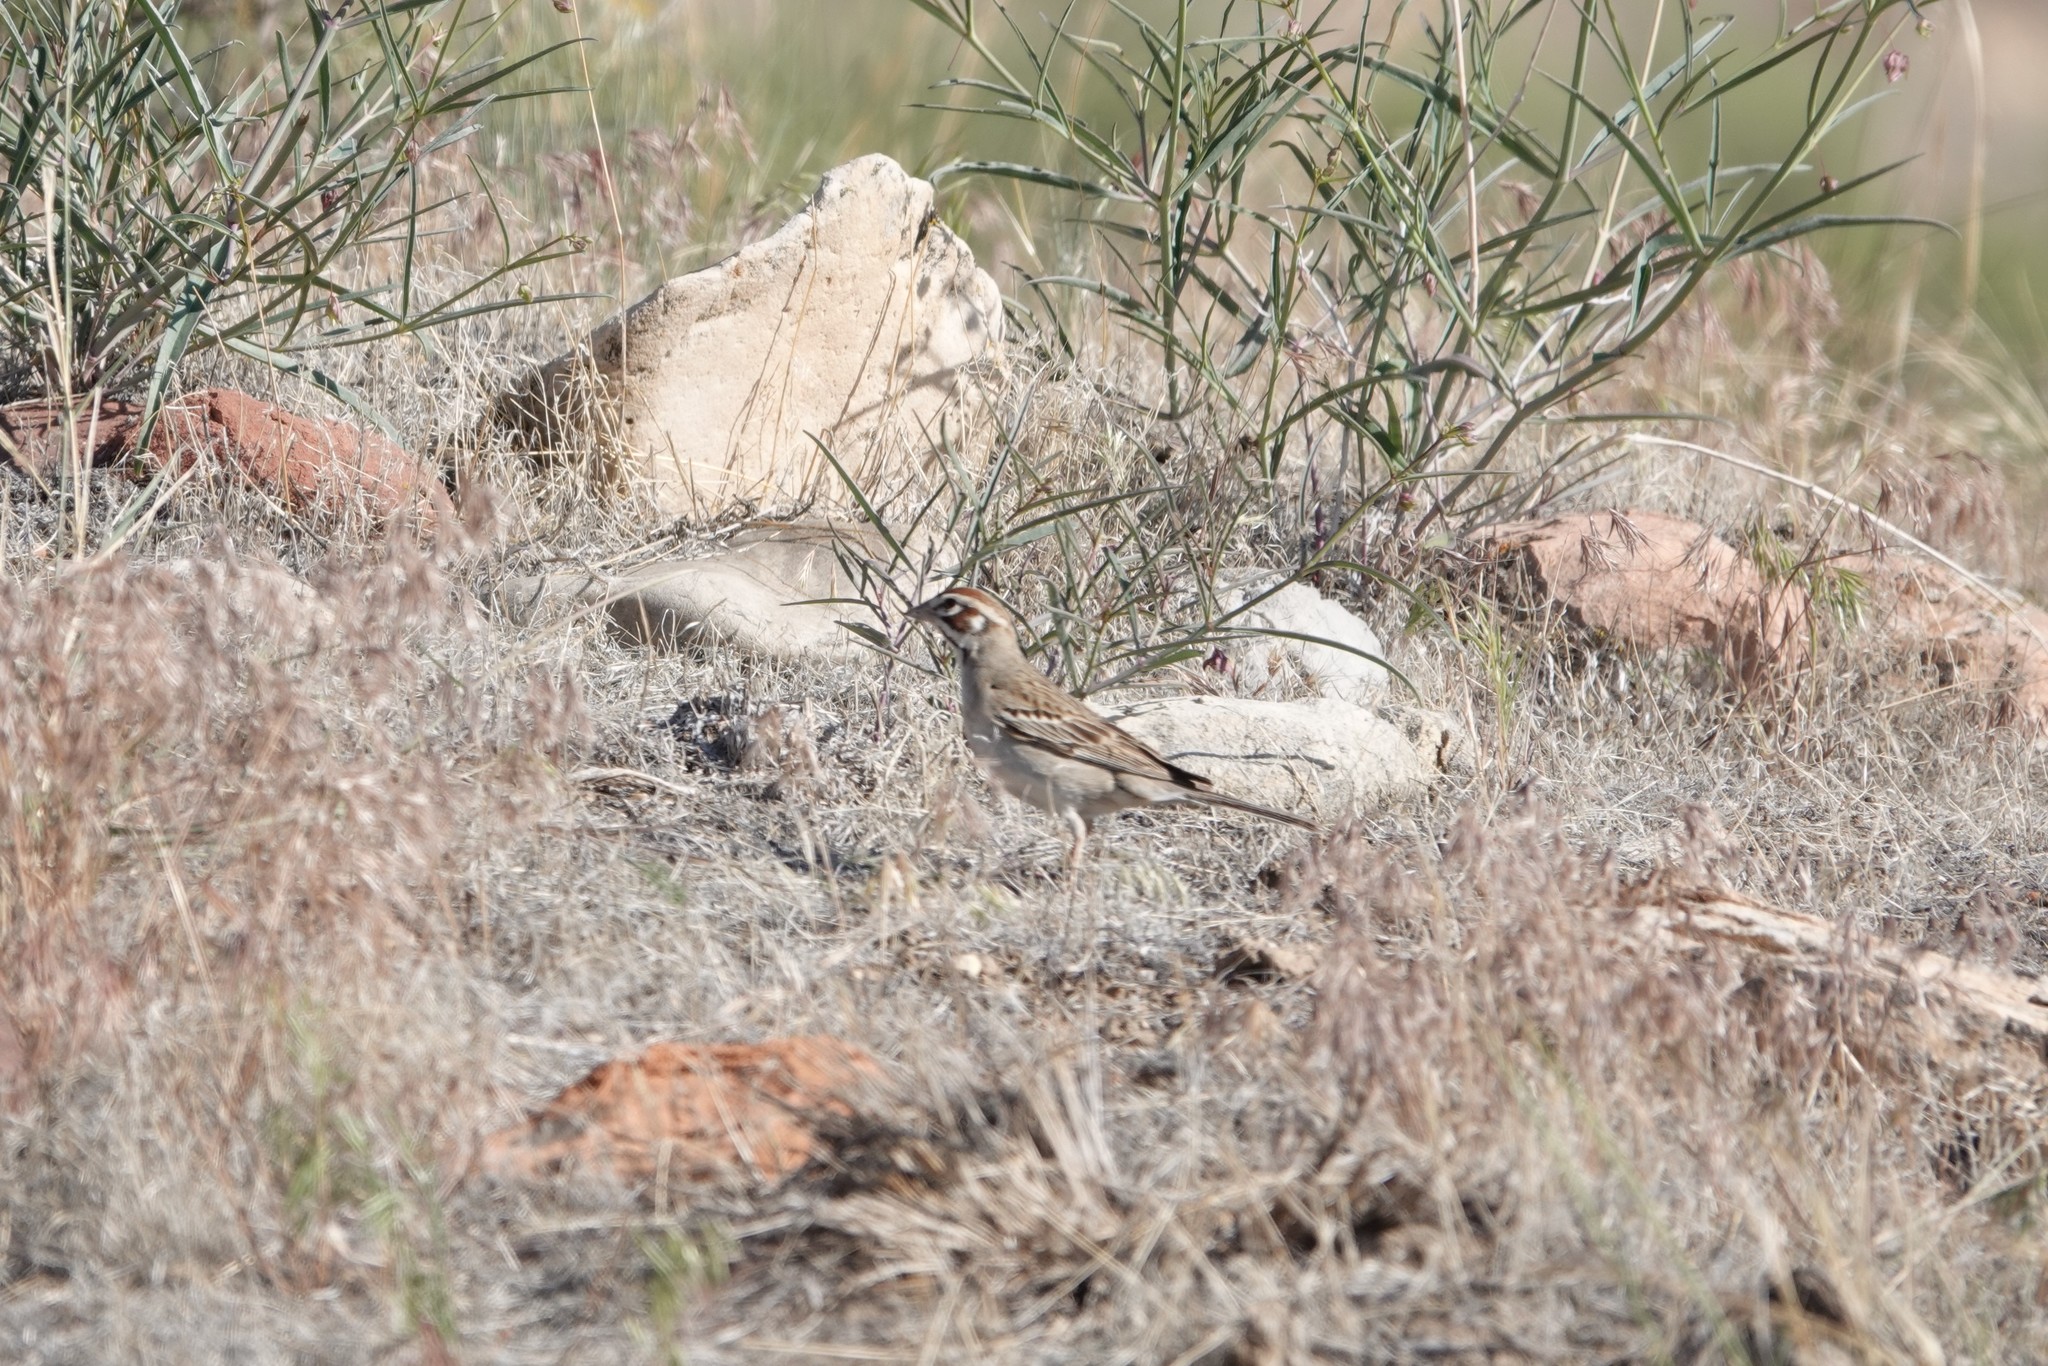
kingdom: Animalia
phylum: Chordata
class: Aves
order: Passeriformes
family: Passerellidae
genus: Chondestes
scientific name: Chondestes grammacus
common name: Lark sparrow
